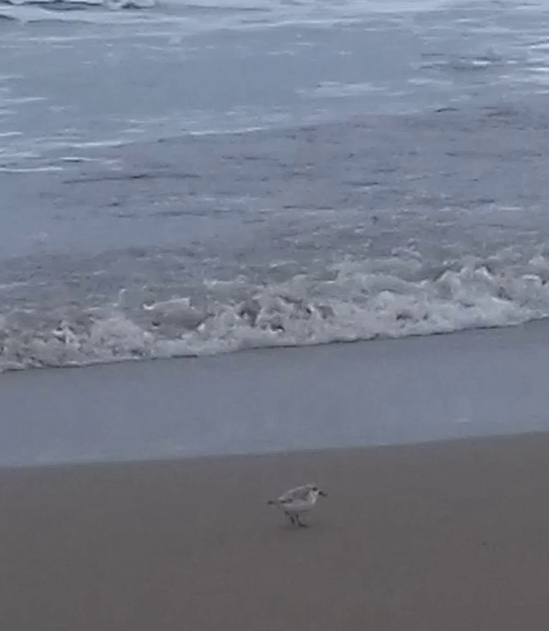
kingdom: Animalia
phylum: Chordata
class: Aves
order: Charadriiformes
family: Scolopacidae
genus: Calidris
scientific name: Calidris alba
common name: Sanderling
